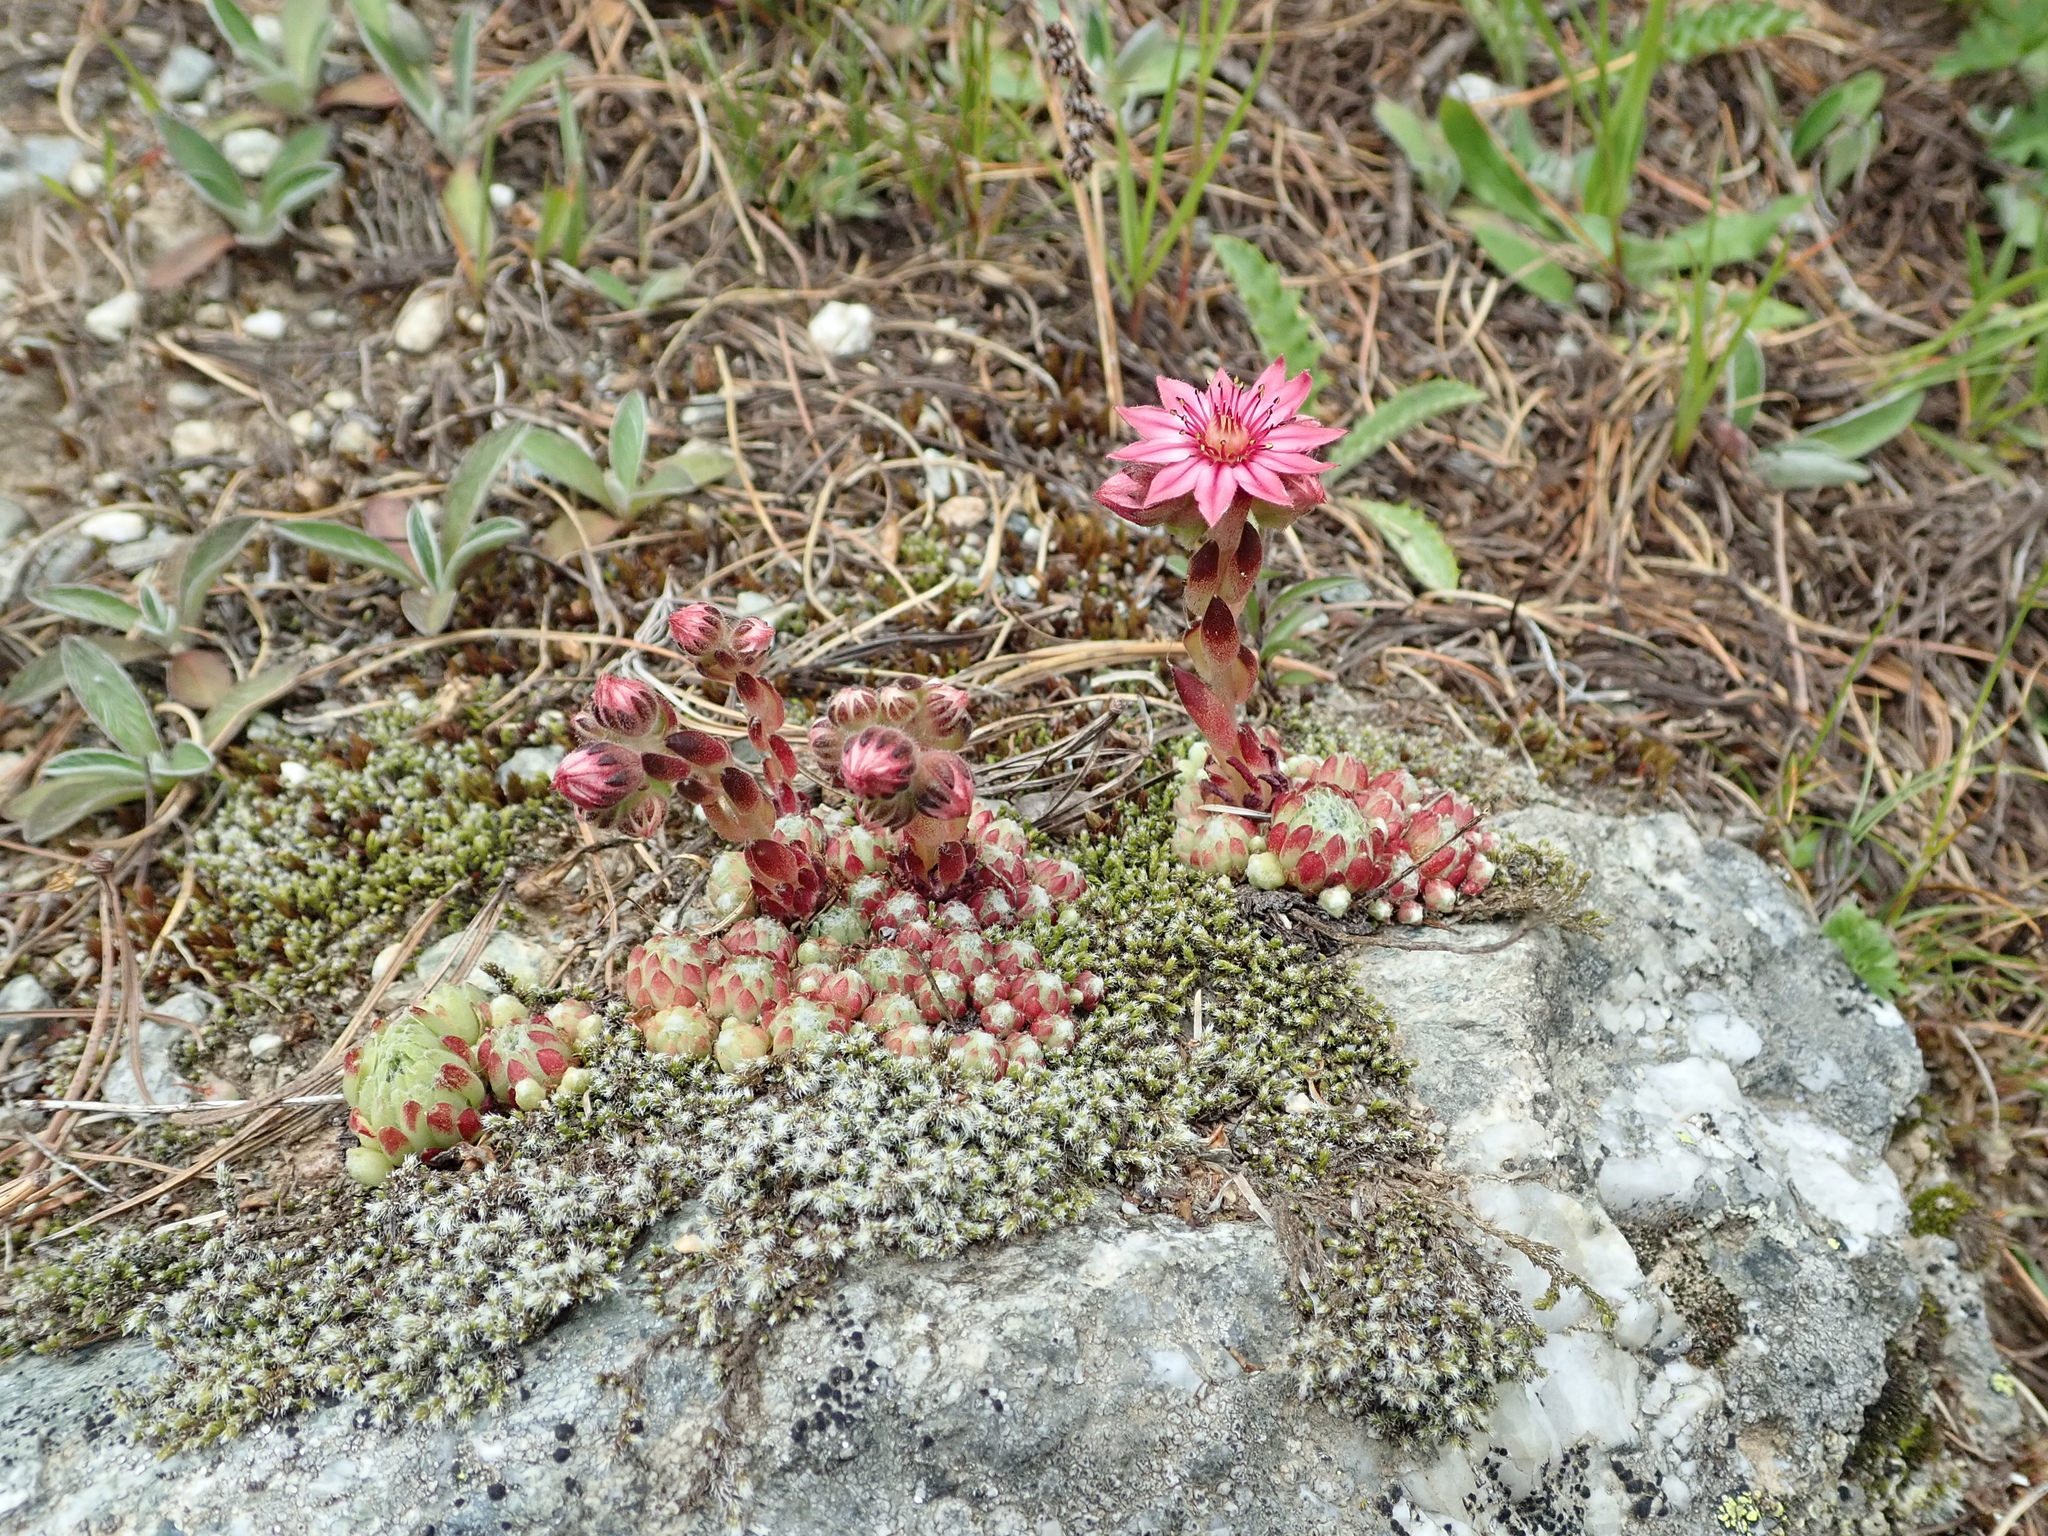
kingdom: Plantae
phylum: Tracheophyta
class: Magnoliopsida
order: Saxifragales
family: Crassulaceae
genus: Sempervivum
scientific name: Sempervivum arachnoideum
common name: Cobweb house-leek
